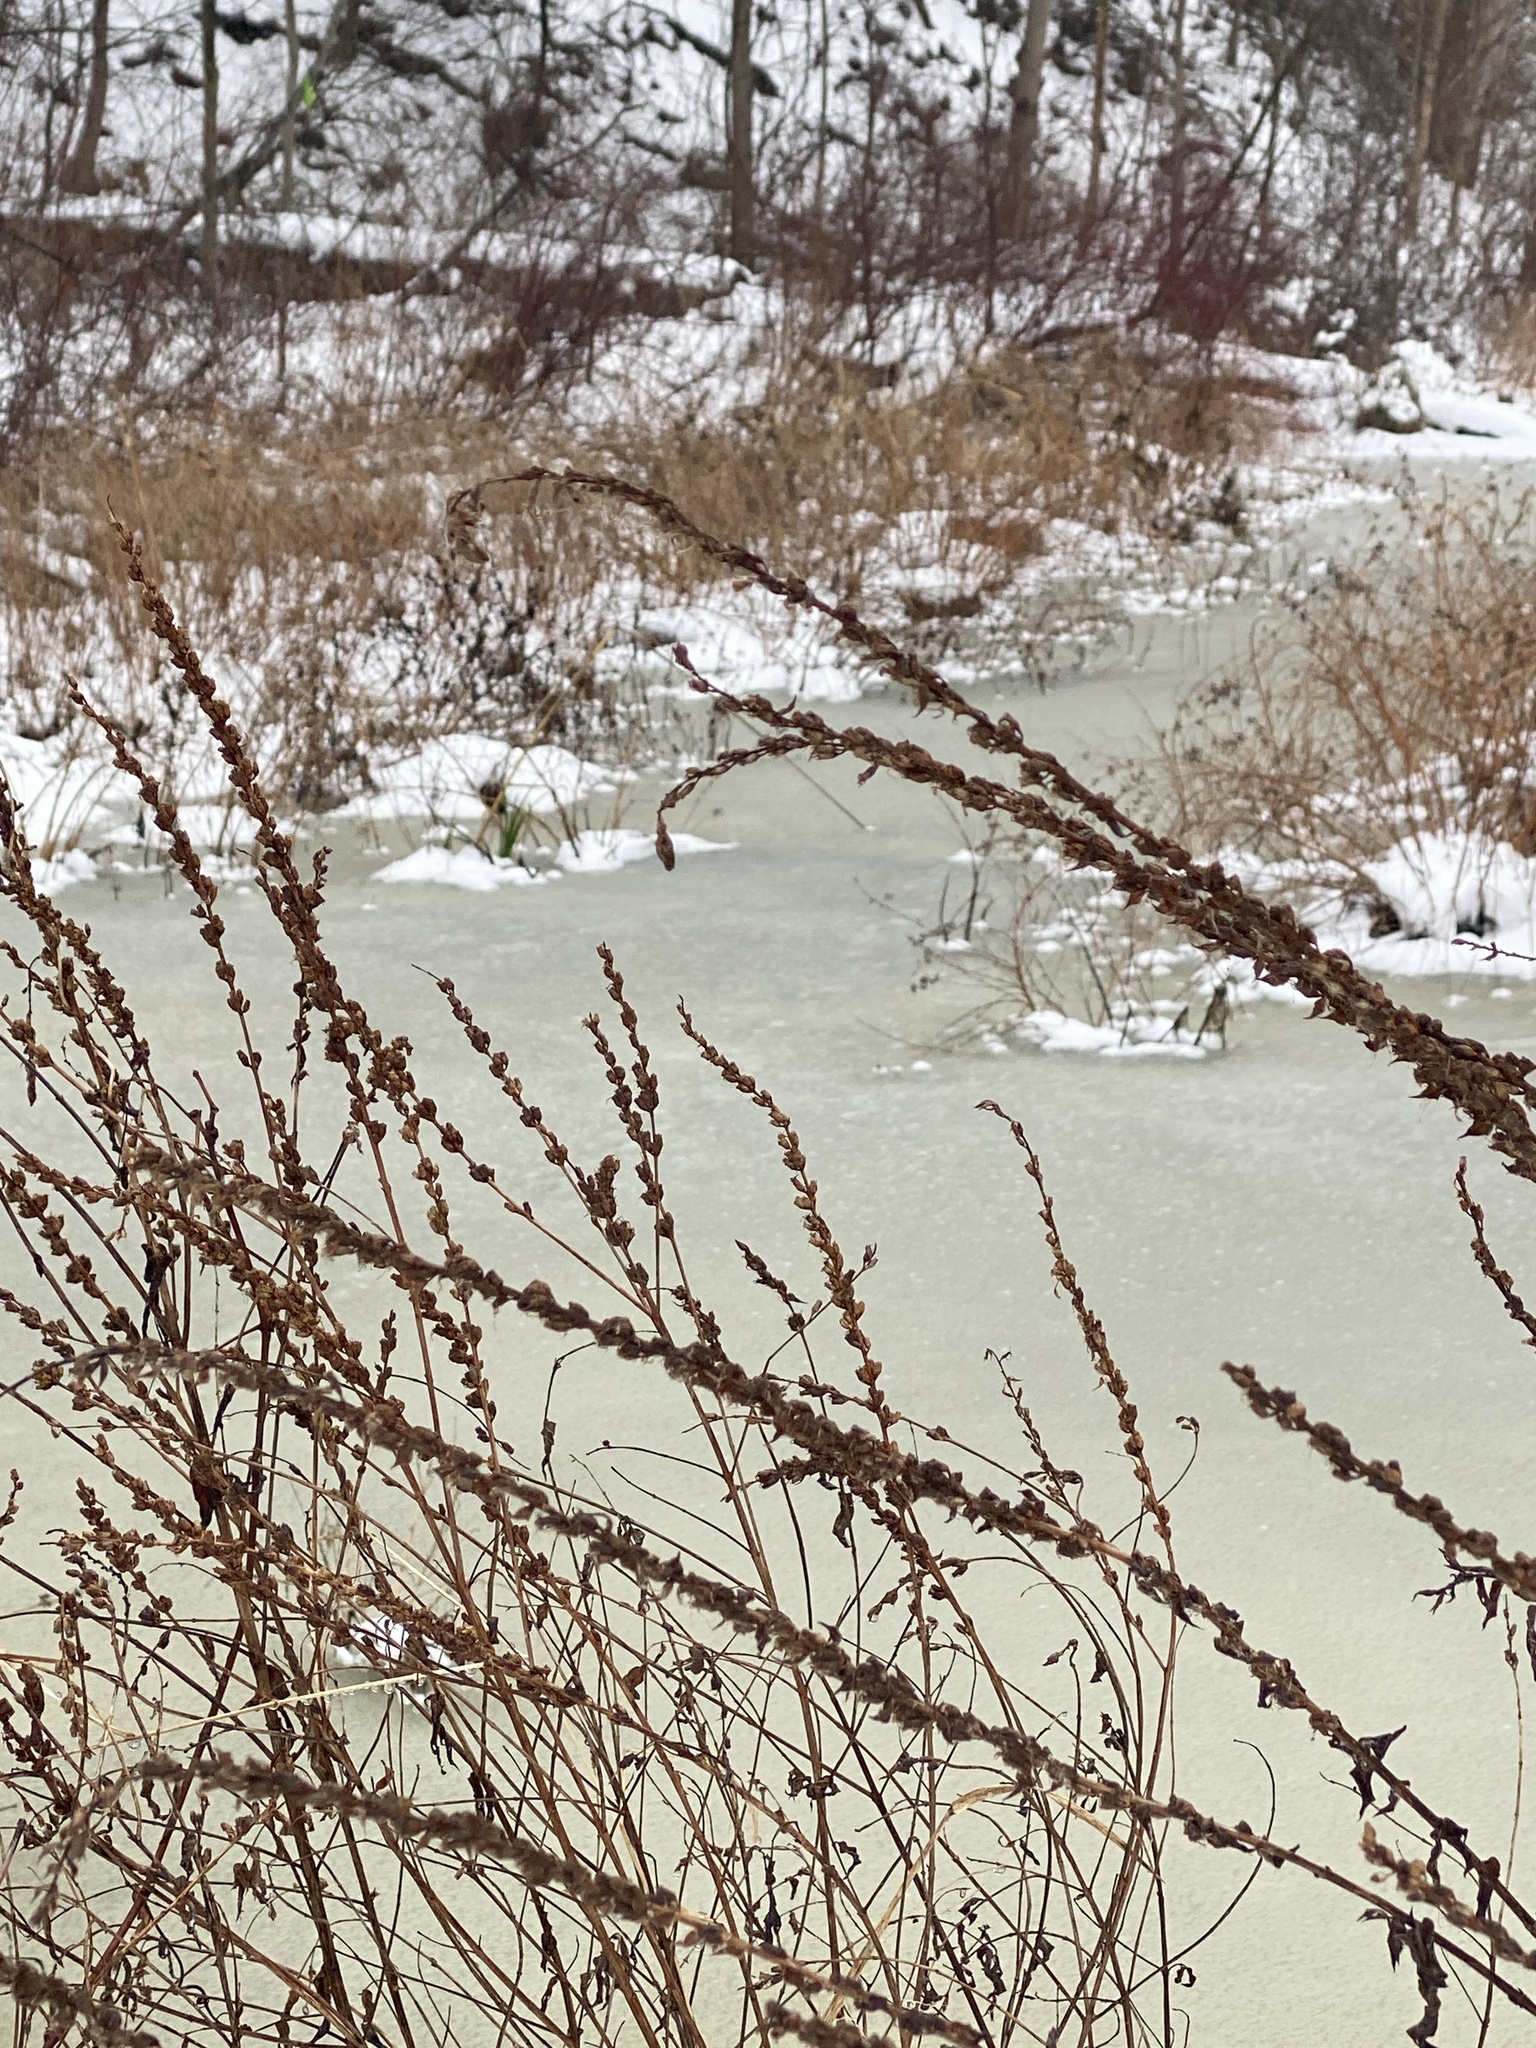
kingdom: Plantae
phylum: Tracheophyta
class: Magnoliopsida
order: Myrtales
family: Lythraceae
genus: Lythrum
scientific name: Lythrum salicaria
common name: Purple loosestrife
